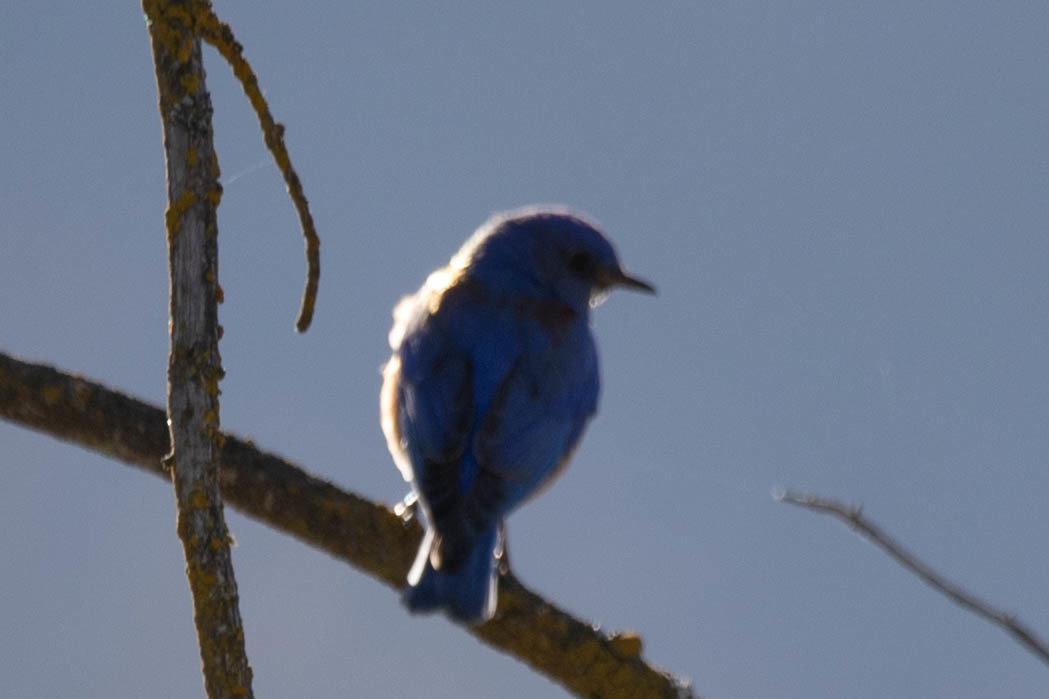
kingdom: Animalia
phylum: Chordata
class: Aves
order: Passeriformes
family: Turdidae
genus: Sialia
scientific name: Sialia mexicana
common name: Western bluebird
